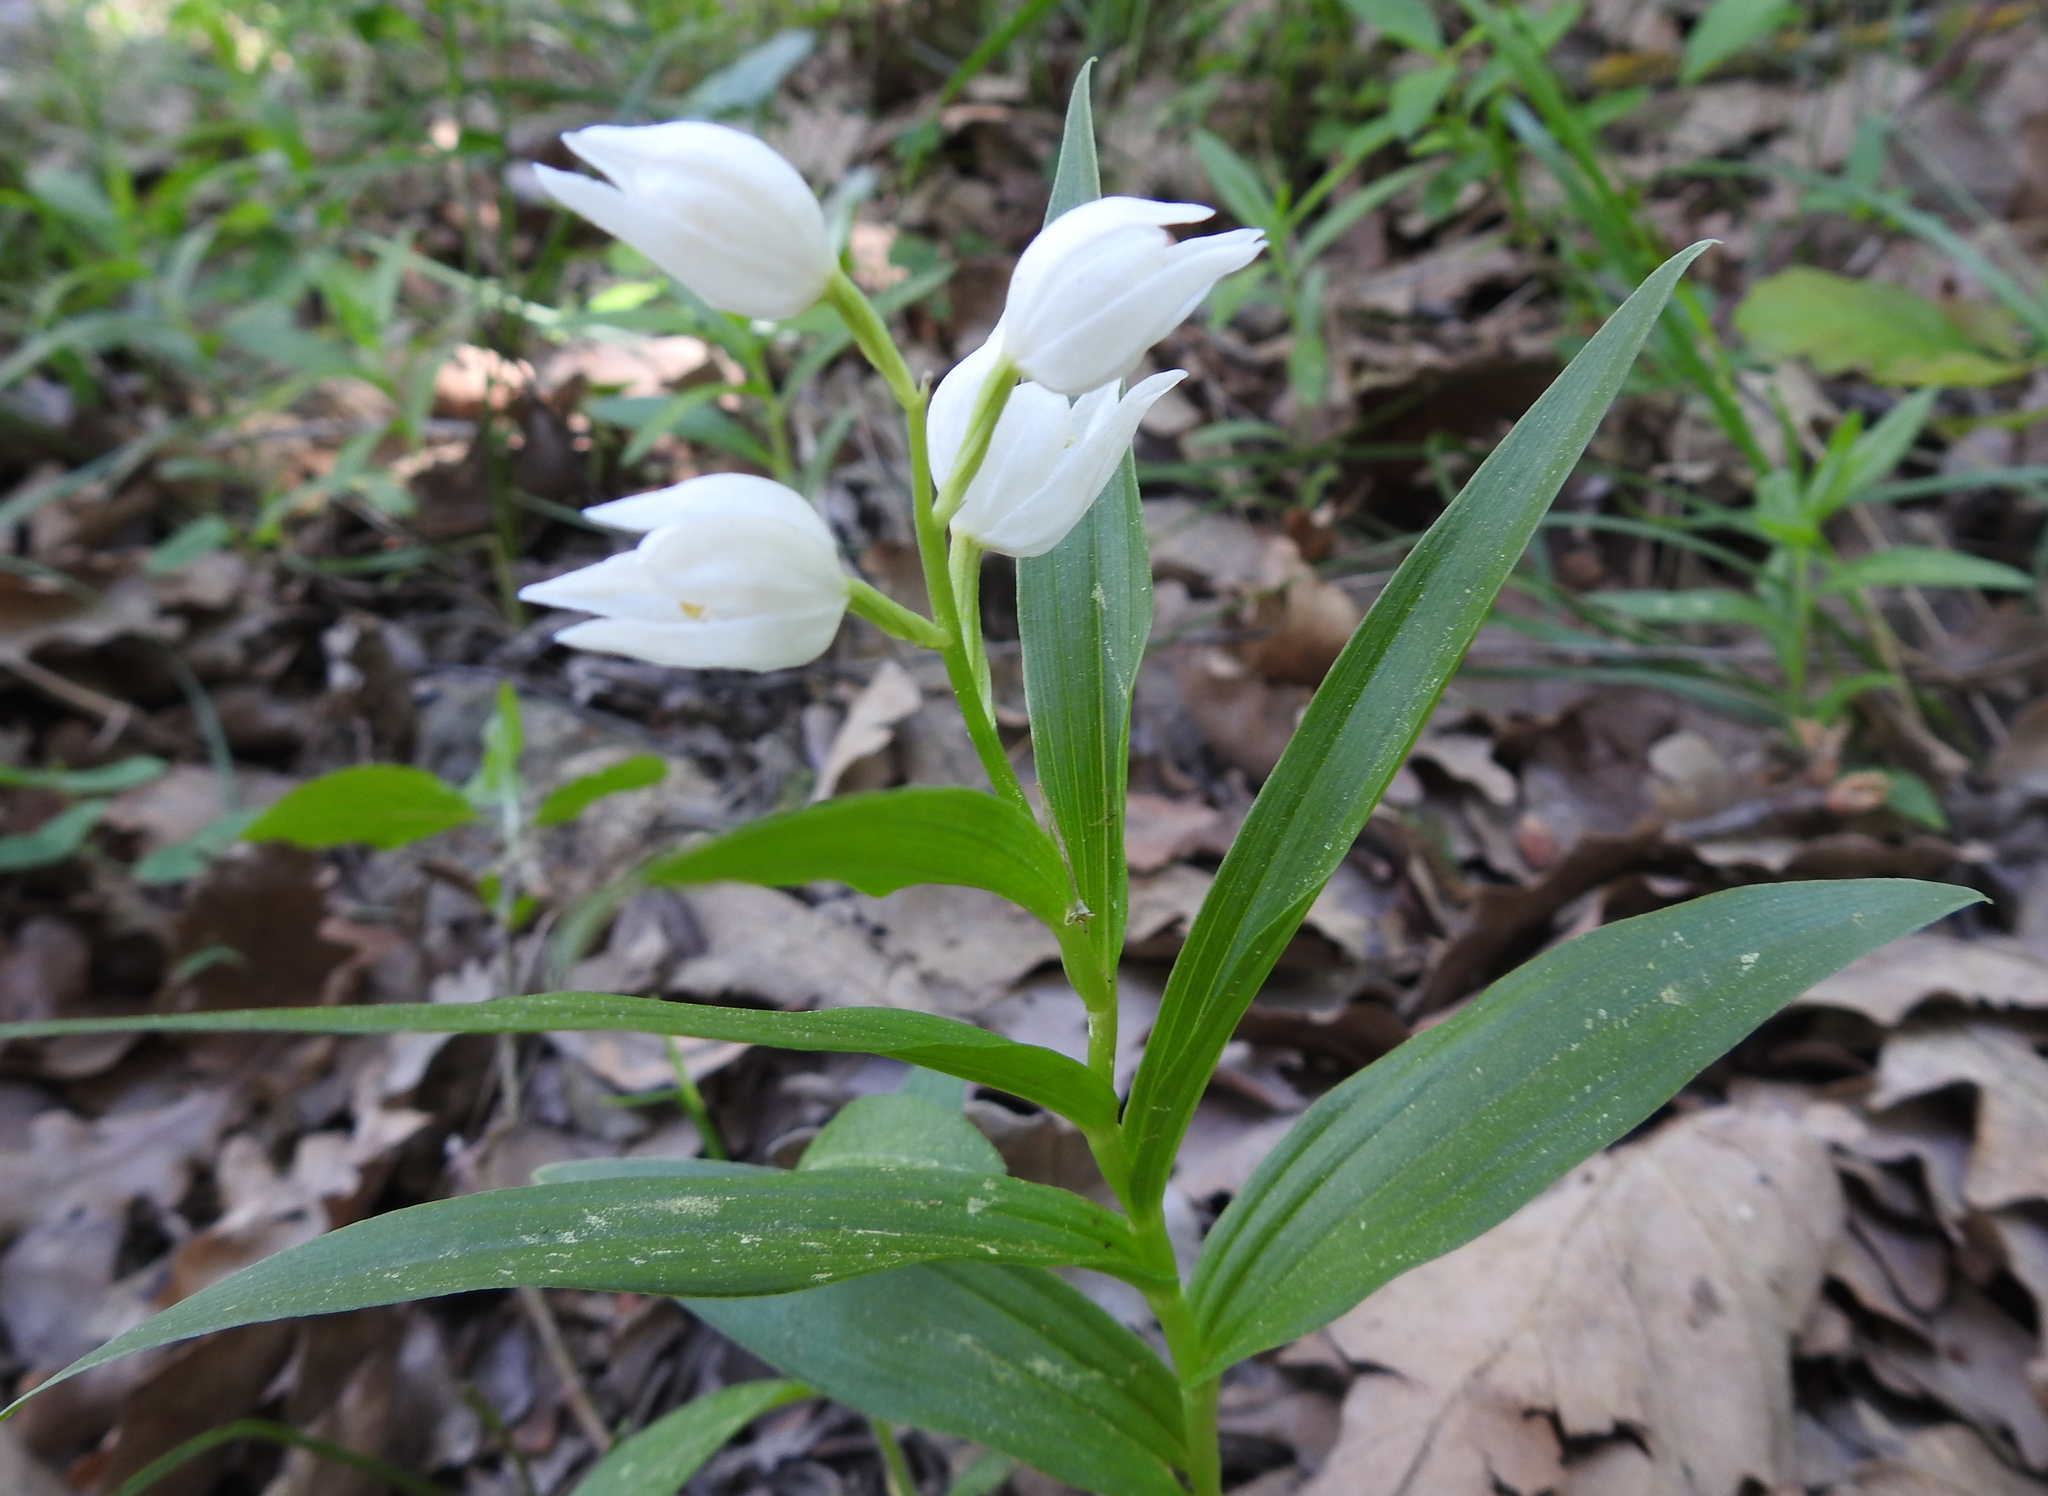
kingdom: Plantae
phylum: Tracheophyta
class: Liliopsida
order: Asparagales
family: Orchidaceae
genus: Cephalanthera
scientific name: Cephalanthera longifolia
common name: Narrow-leaved helleborine
